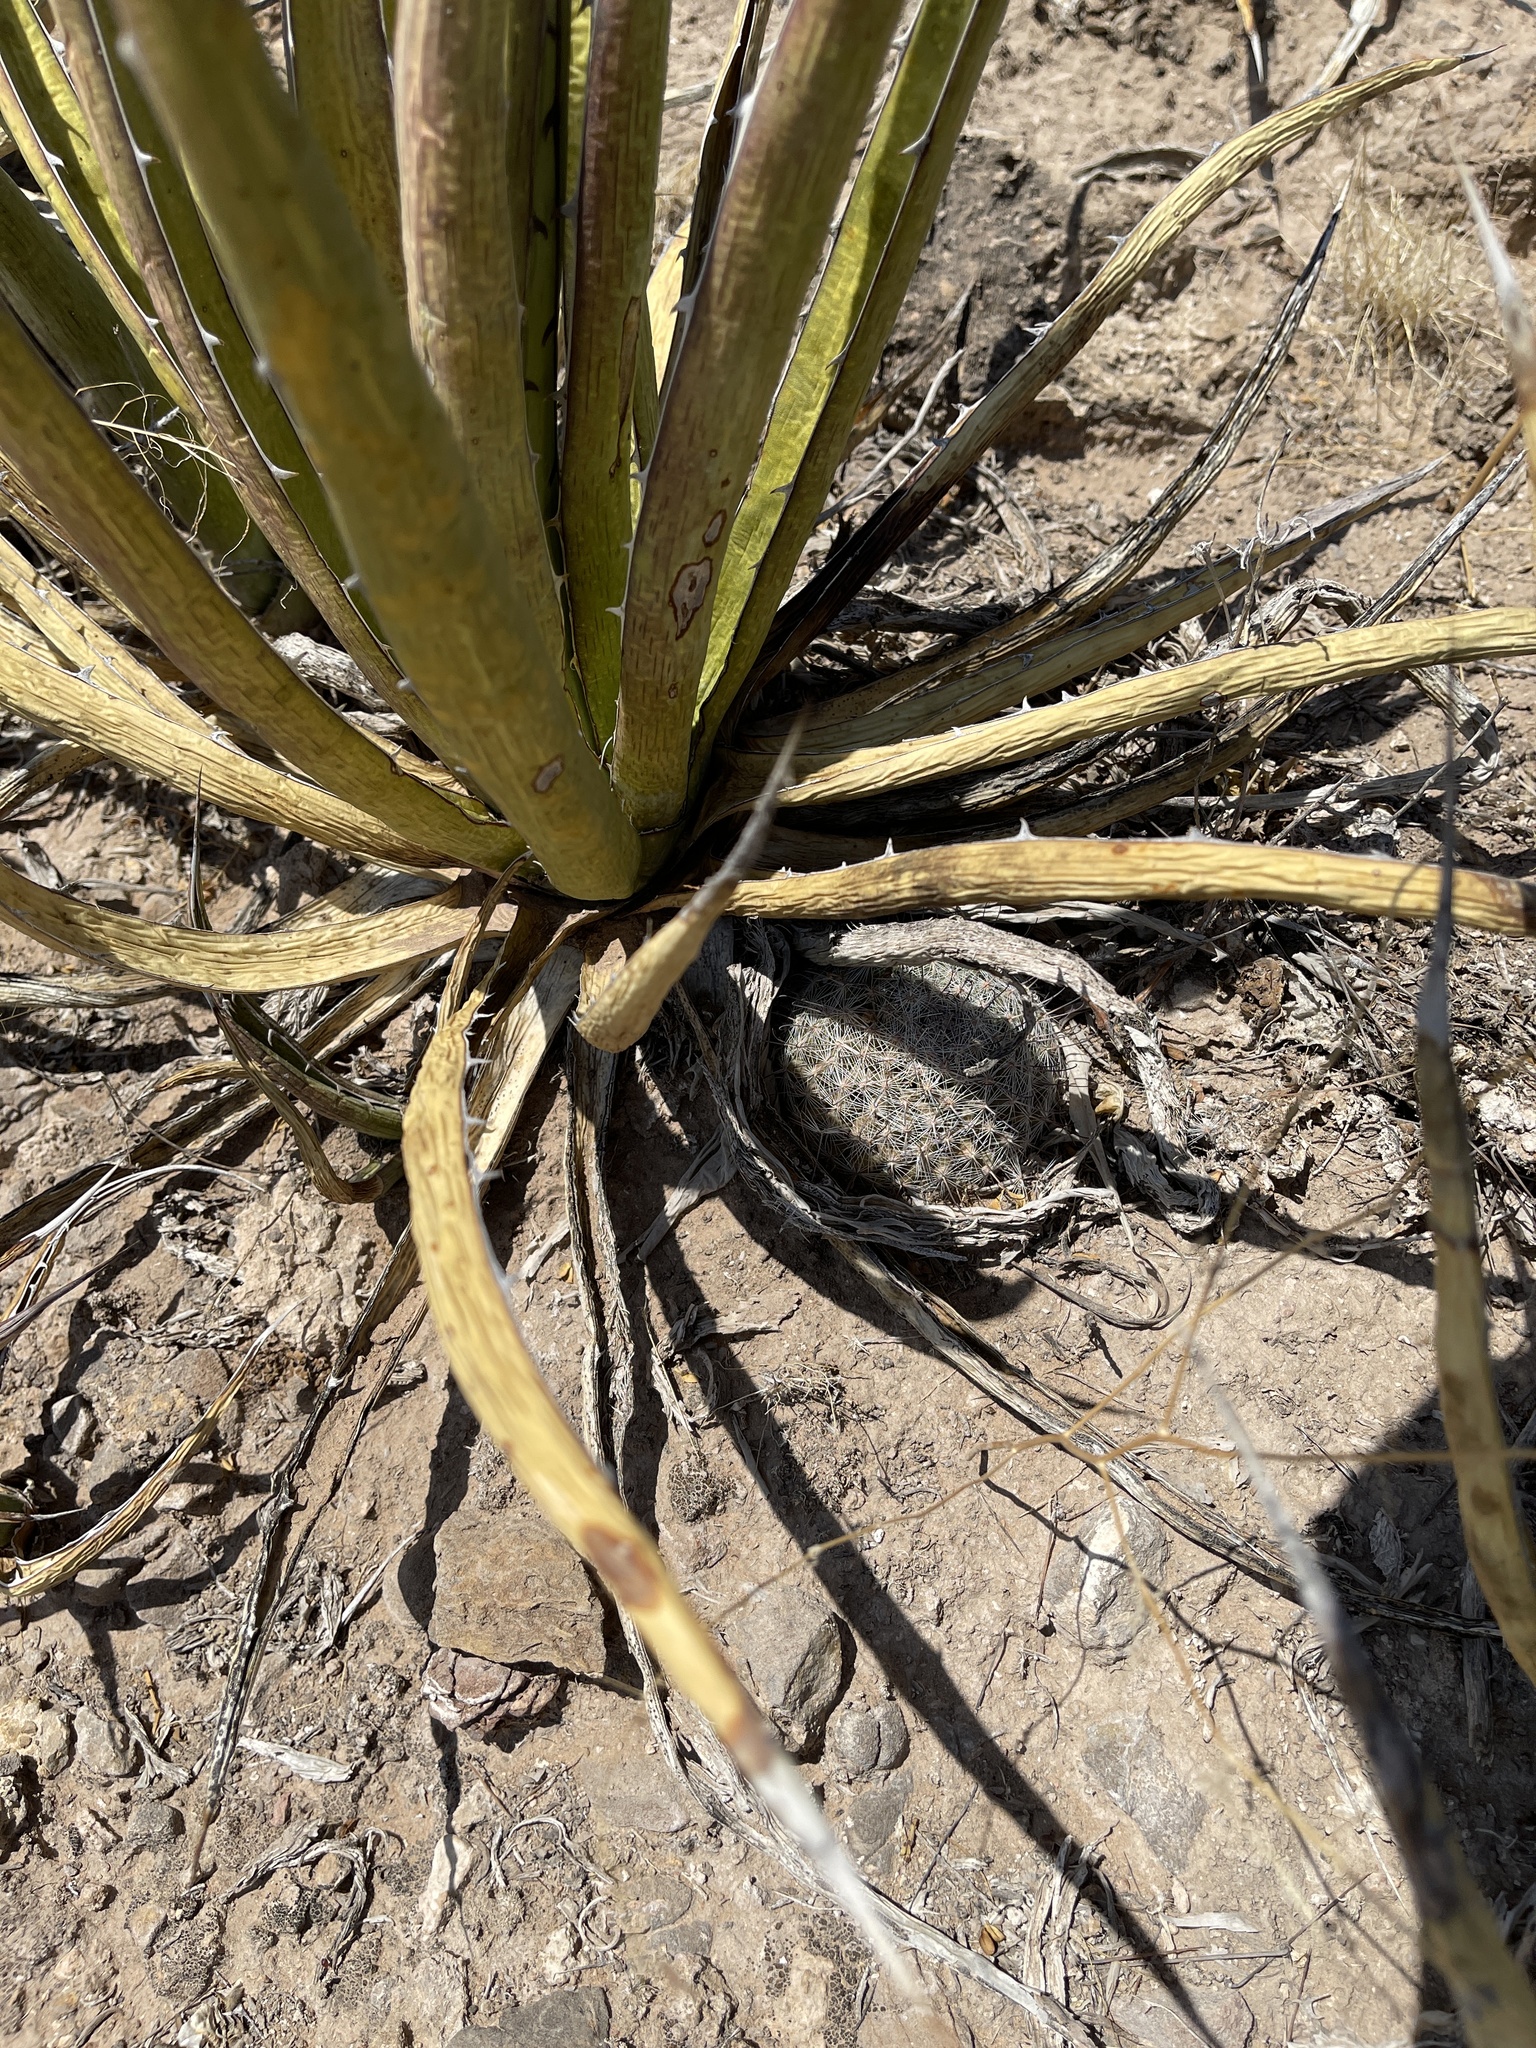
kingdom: Plantae
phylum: Tracheophyta
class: Magnoliopsida
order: Caryophyllales
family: Cactaceae
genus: Cochemiea
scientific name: Cochemiea grahamii
